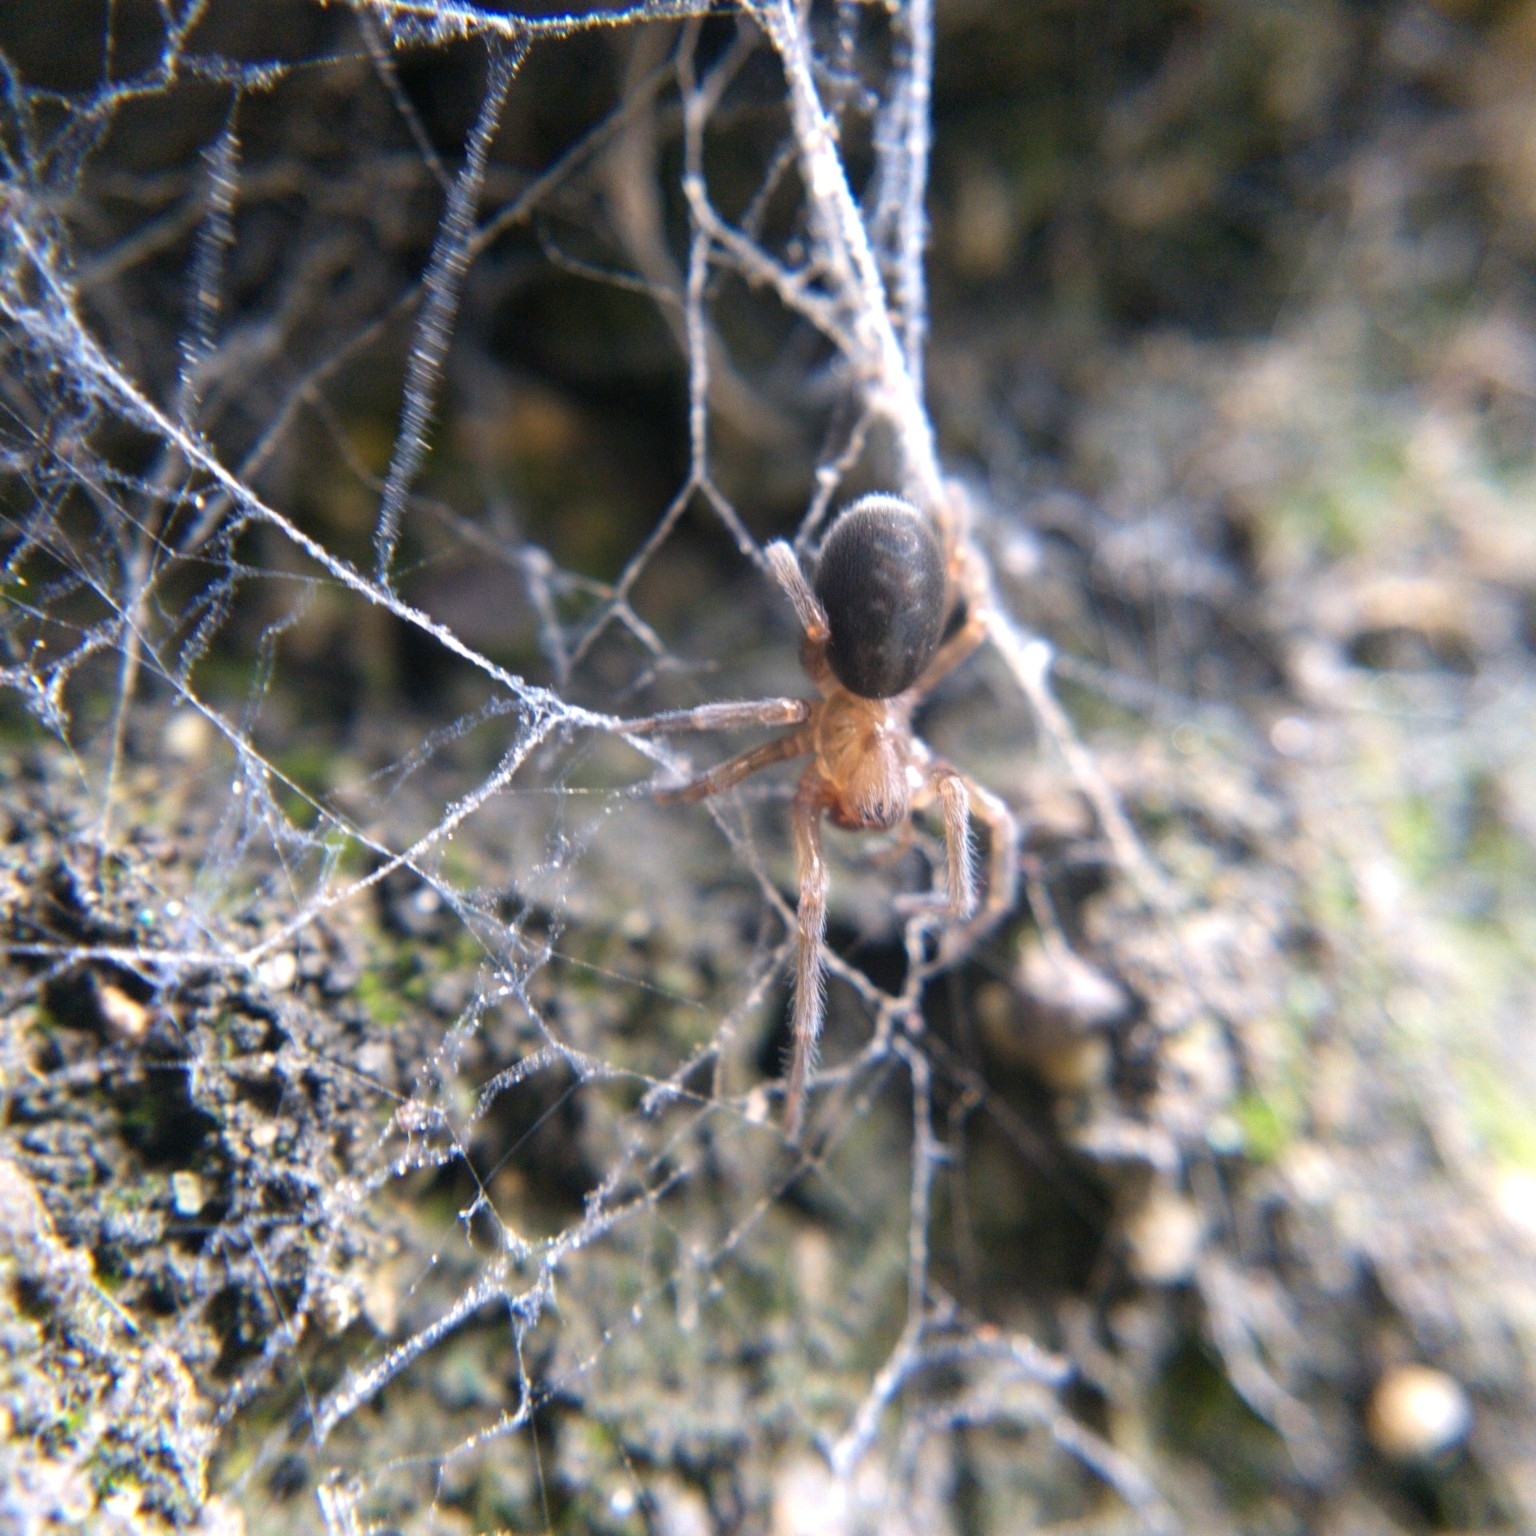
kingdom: Animalia
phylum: Arthropoda
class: Arachnida
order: Araneae
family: Amaurobiidae
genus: Amaurobius
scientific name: Amaurobius ferox
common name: Black laceweaver
